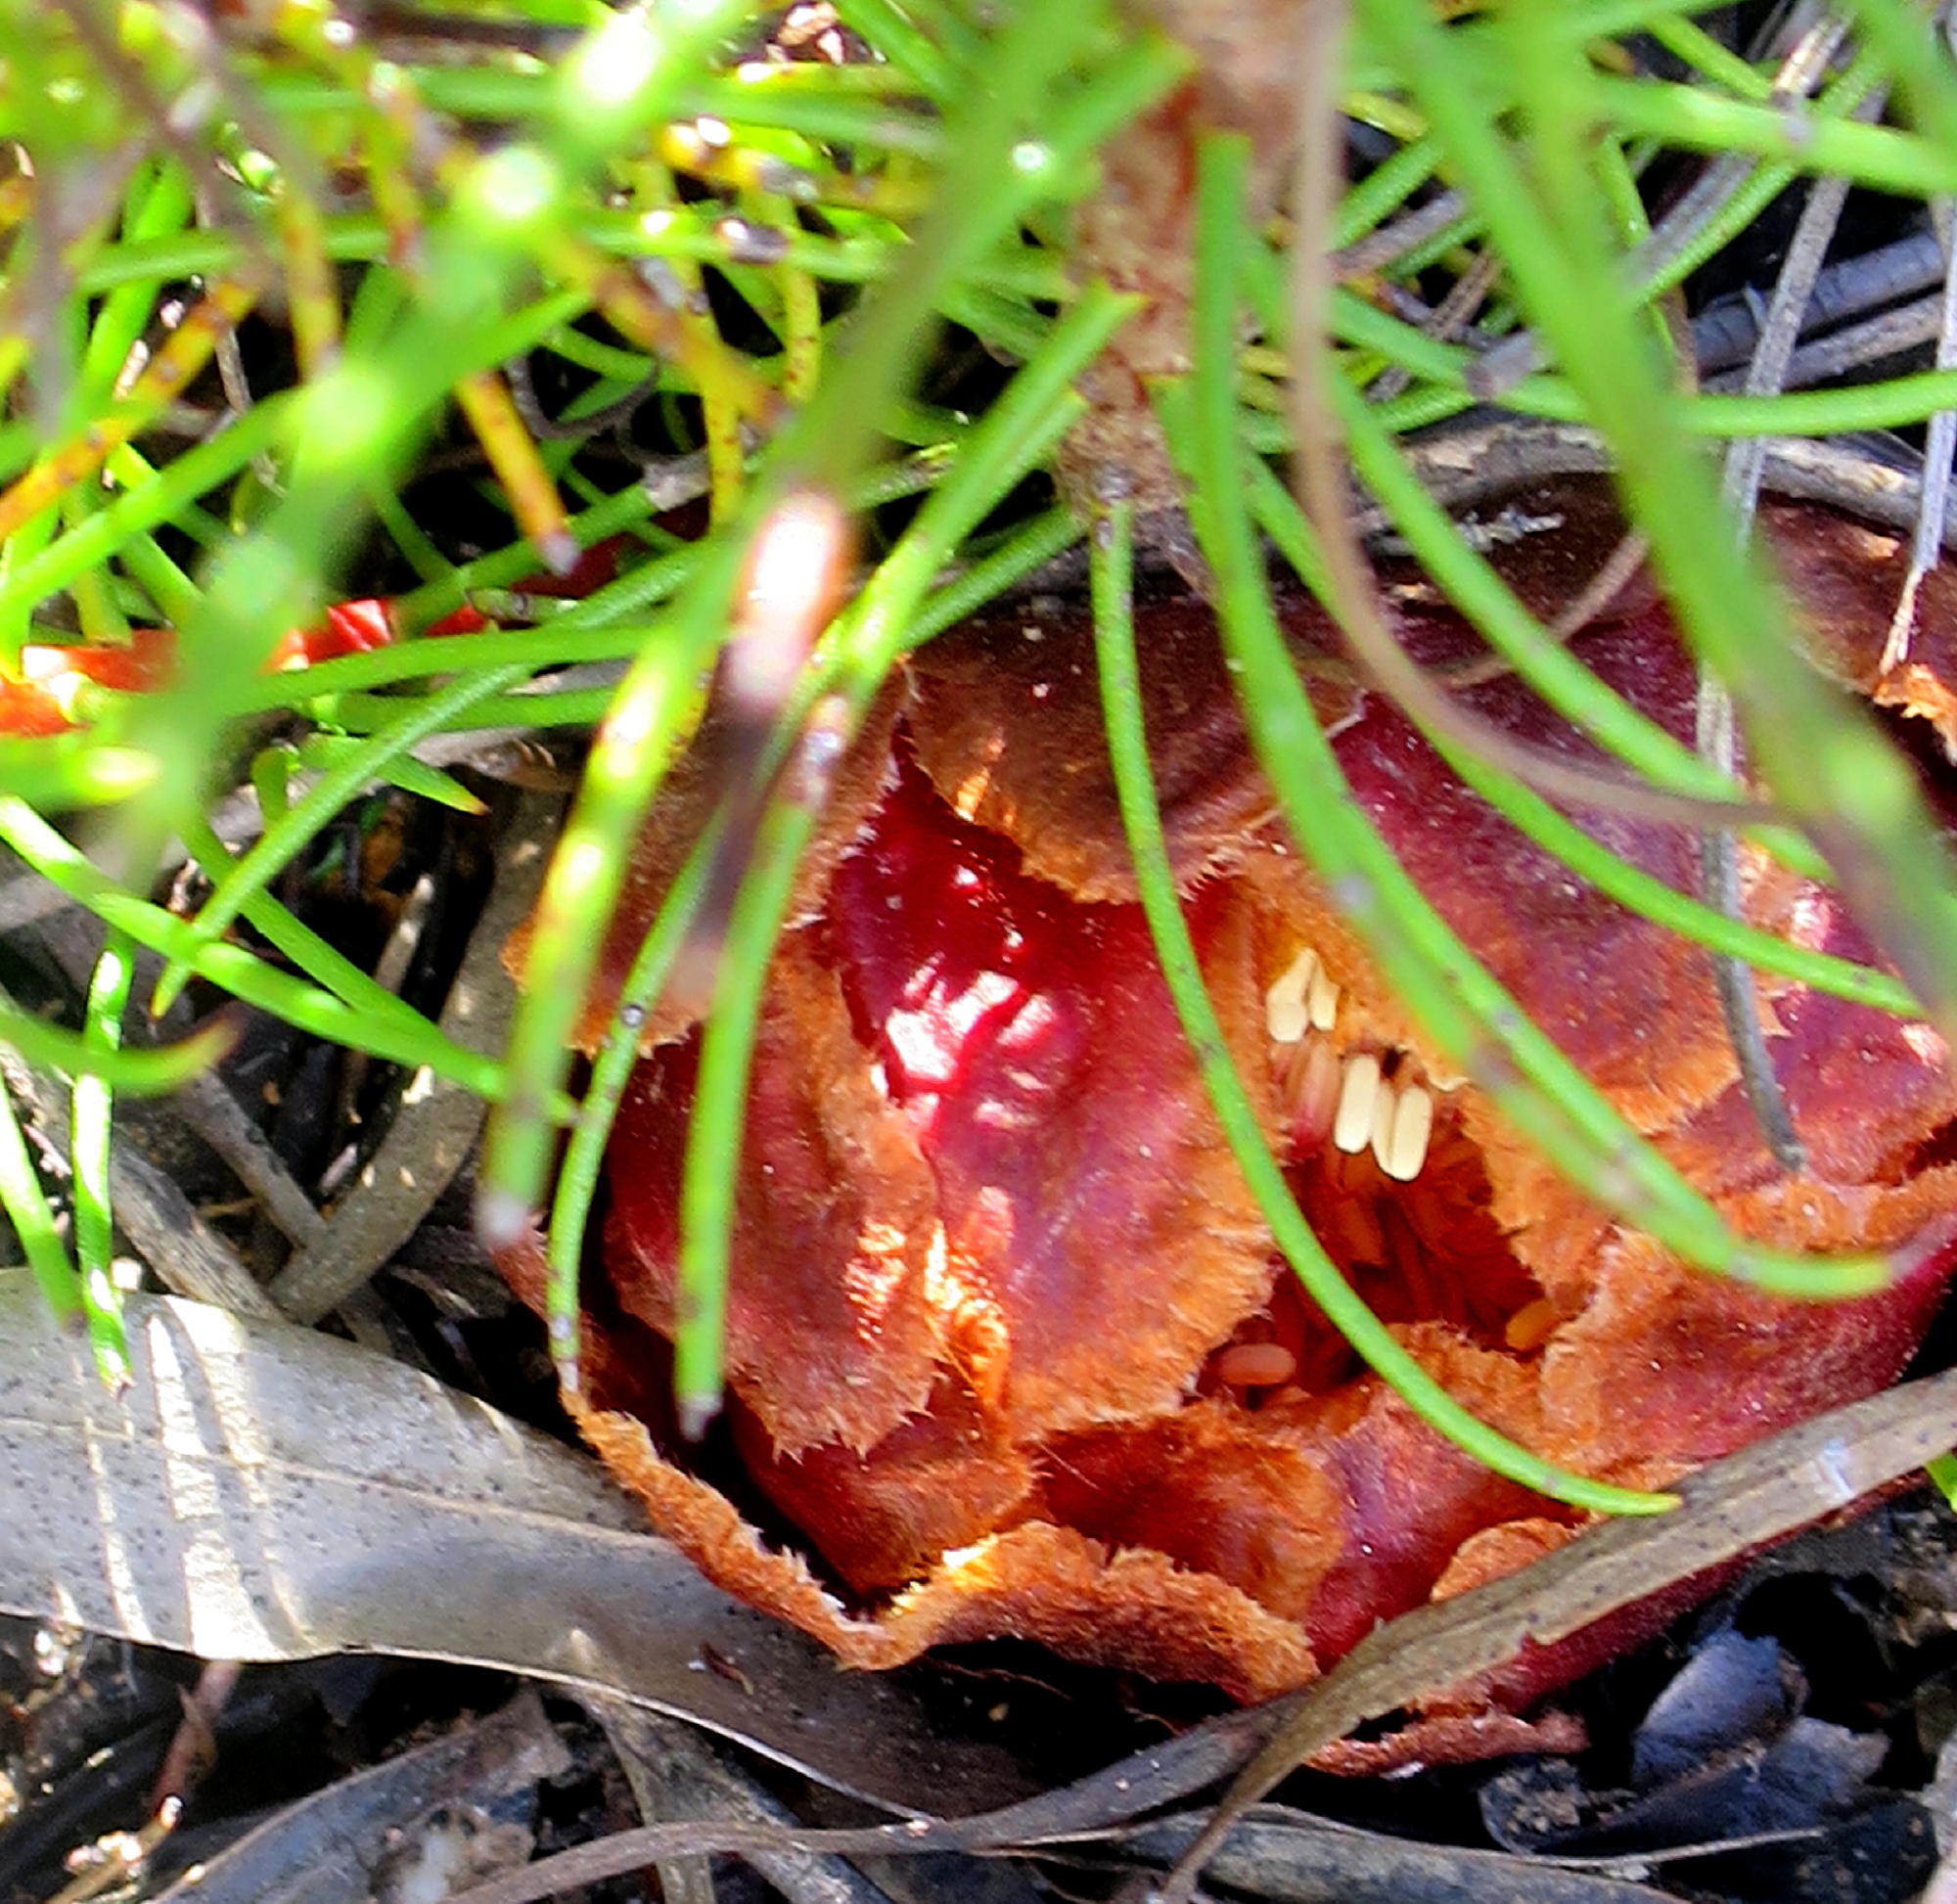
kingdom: Plantae
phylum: Tracheophyta
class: Magnoliopsida
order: Proteales
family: Proteaceae
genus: Protea
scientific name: Protea subulifolia
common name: Awl-leaf sugarbush
